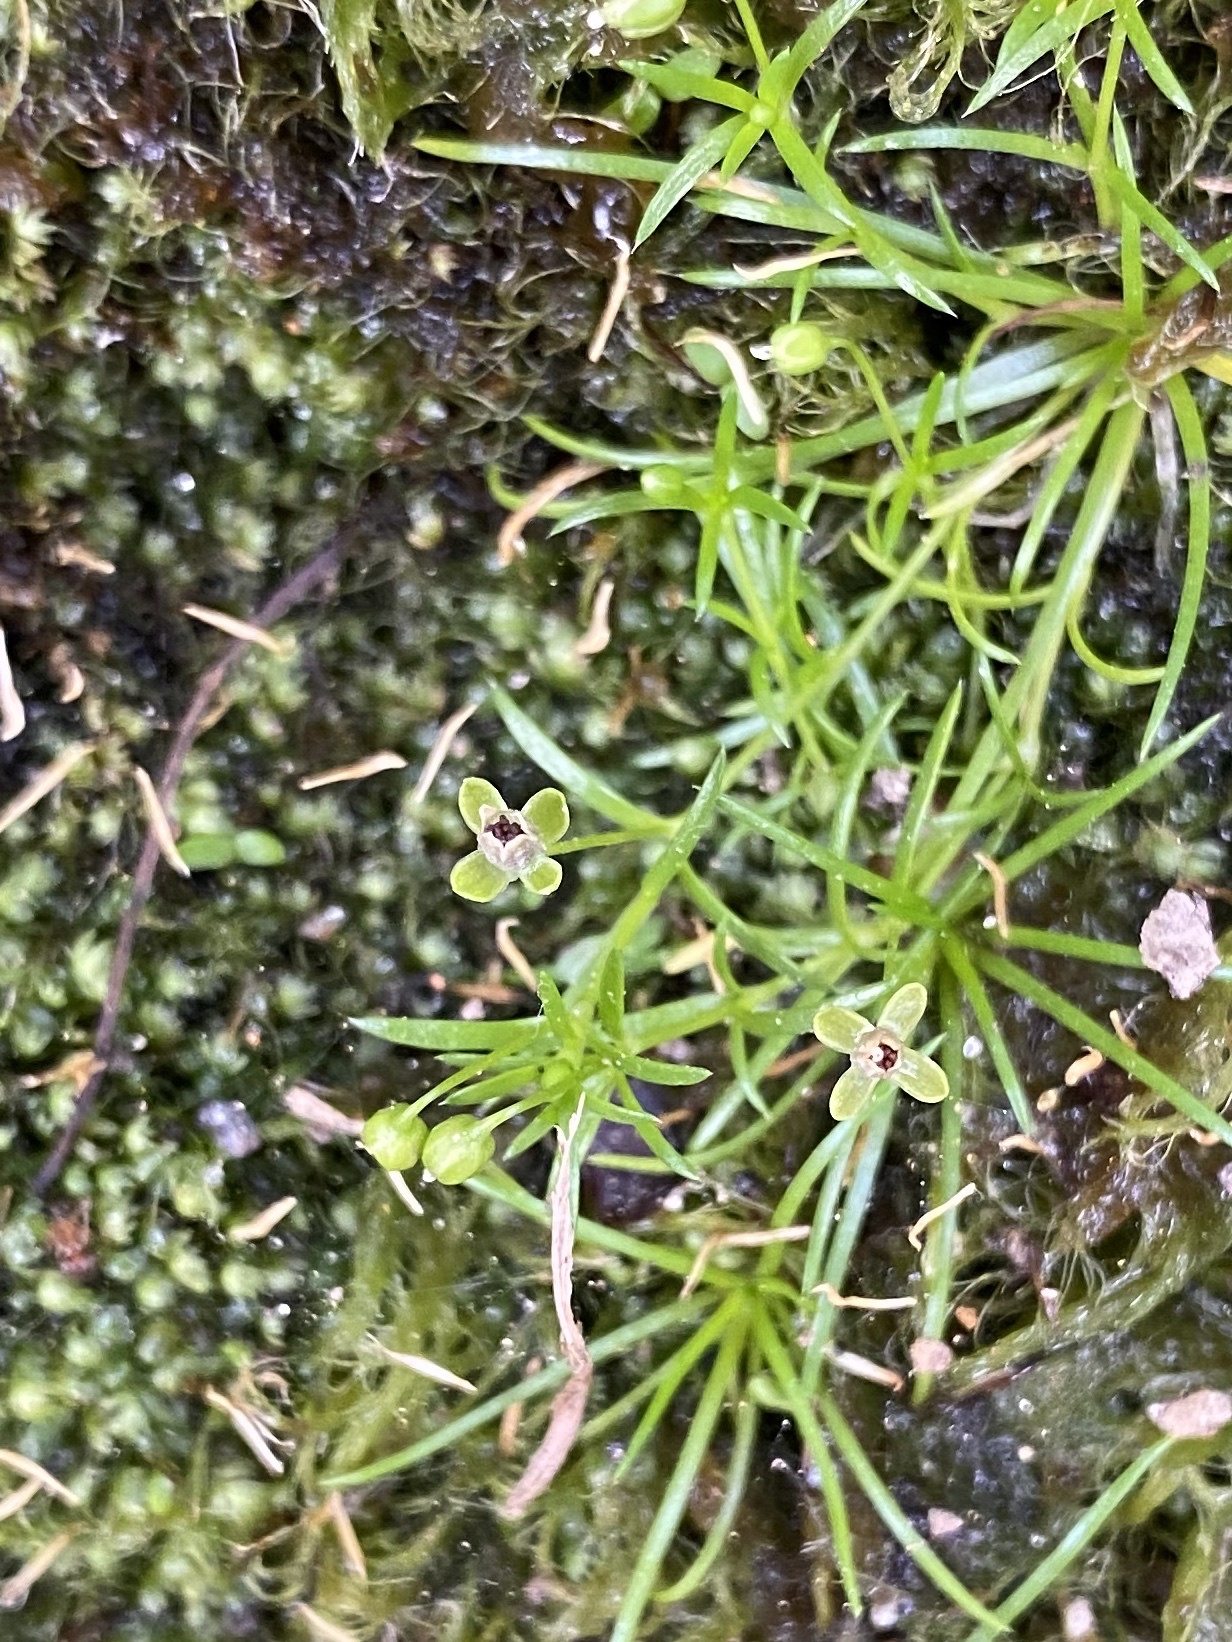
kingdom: Plantae
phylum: Tracheophyta
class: Magnoliopsida
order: Caryophyllales
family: Caryophyllaceae
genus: Sagina
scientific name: Sagina procumbens
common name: Procumbent pearlwort
